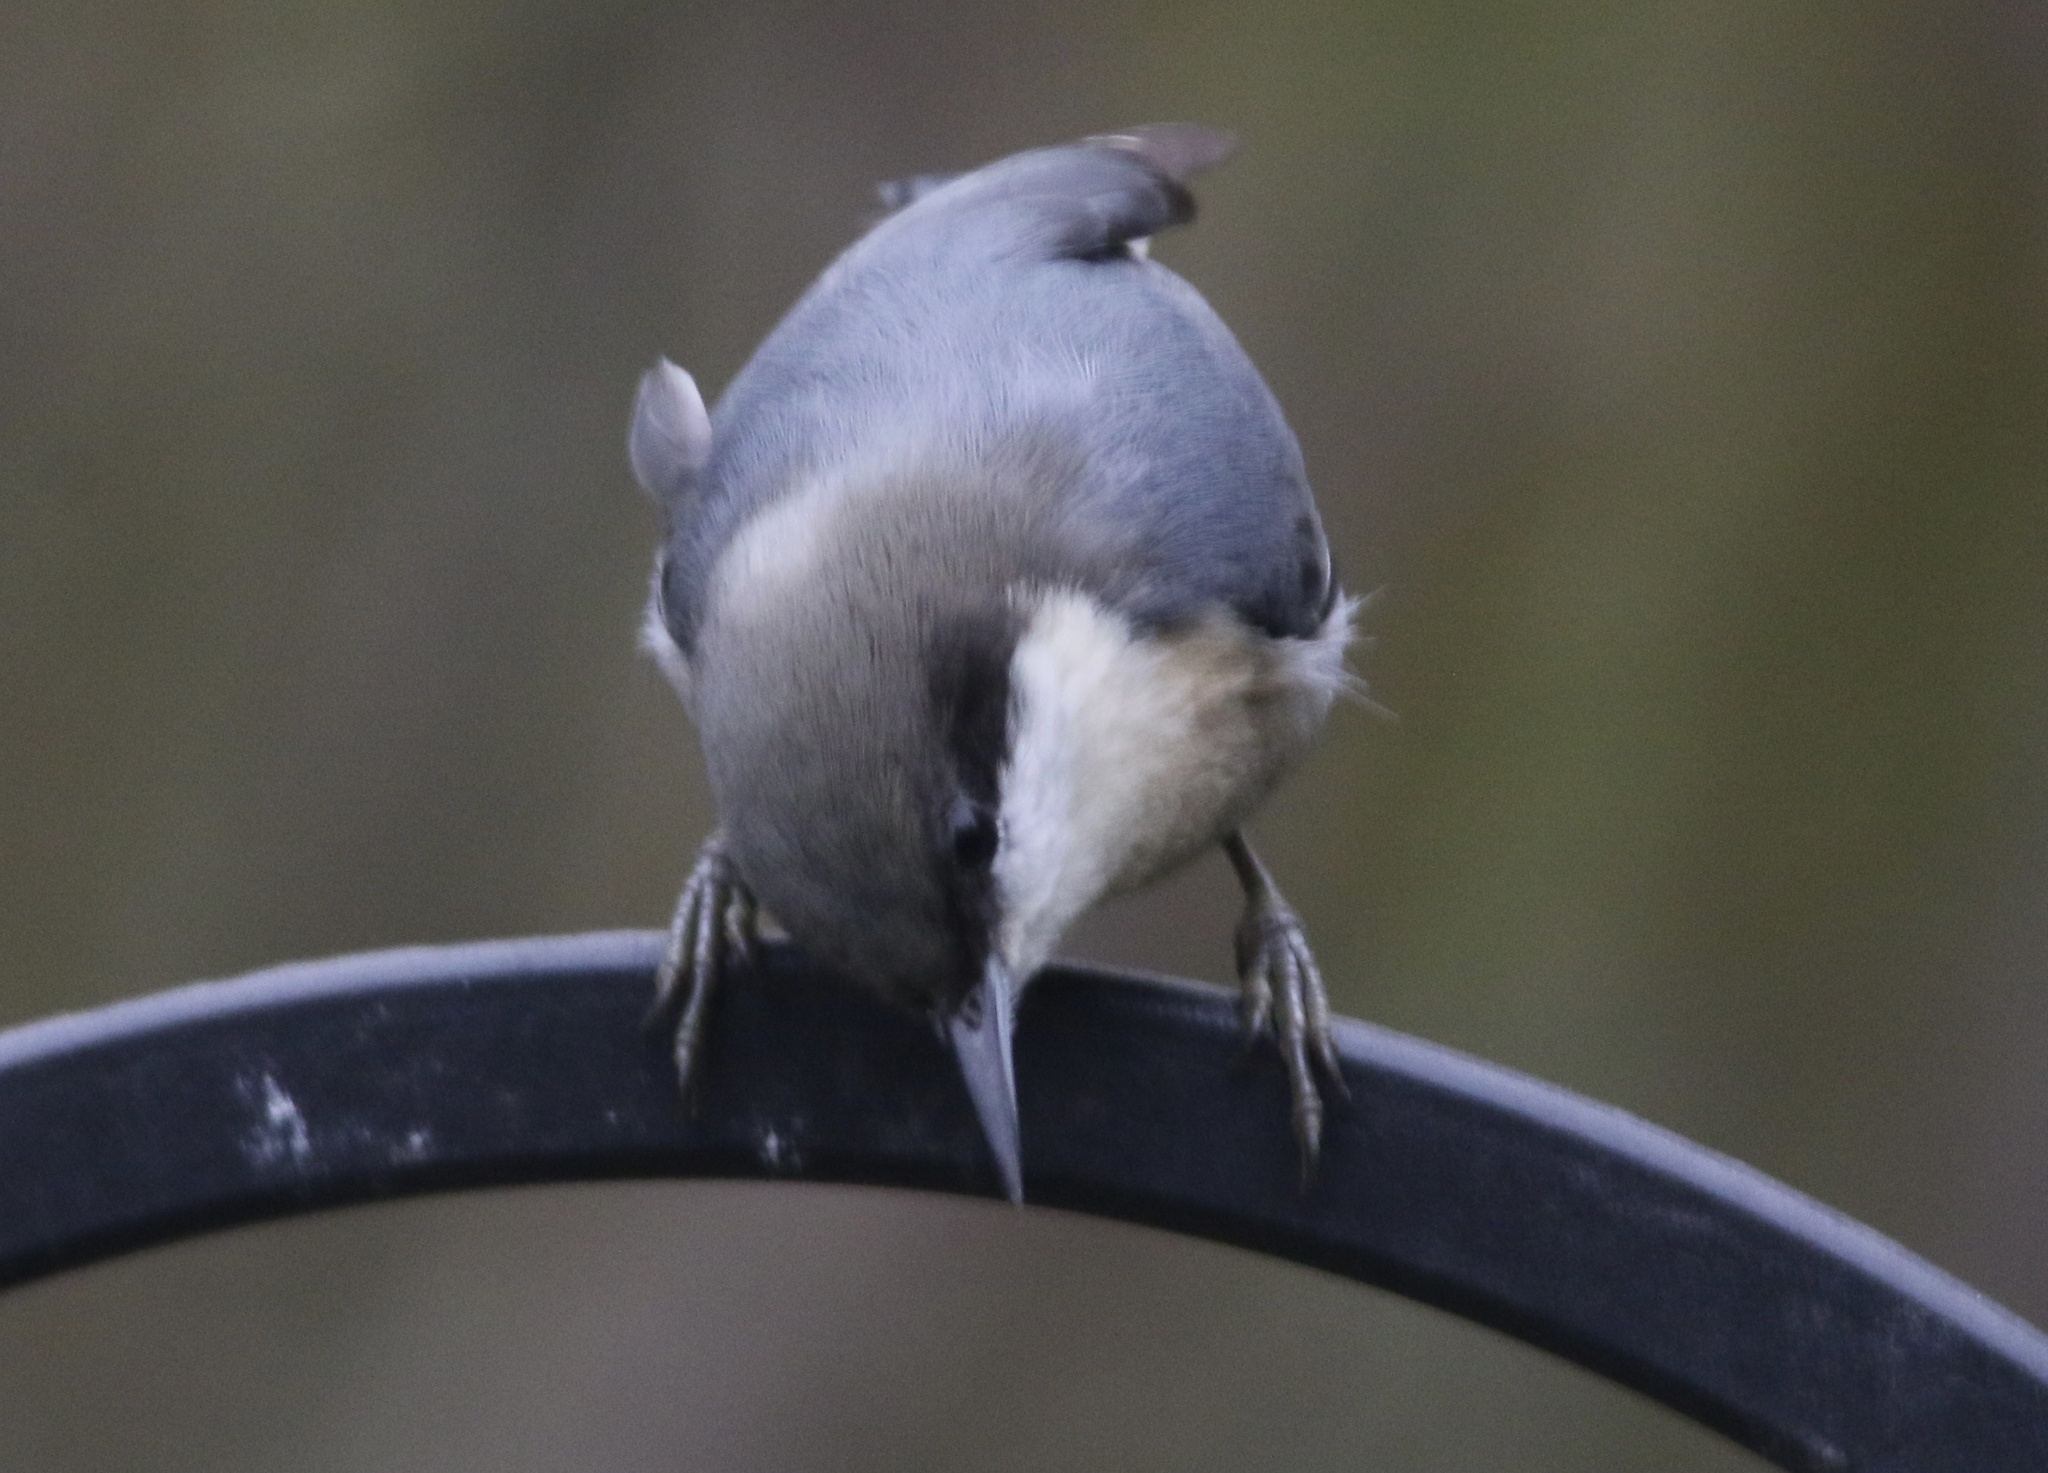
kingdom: Animalia
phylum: Chordata
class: Aves
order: Passeriformes
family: Sittidae
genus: Sitta
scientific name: Sitta pygmaea
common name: Pygmy nuthatch
